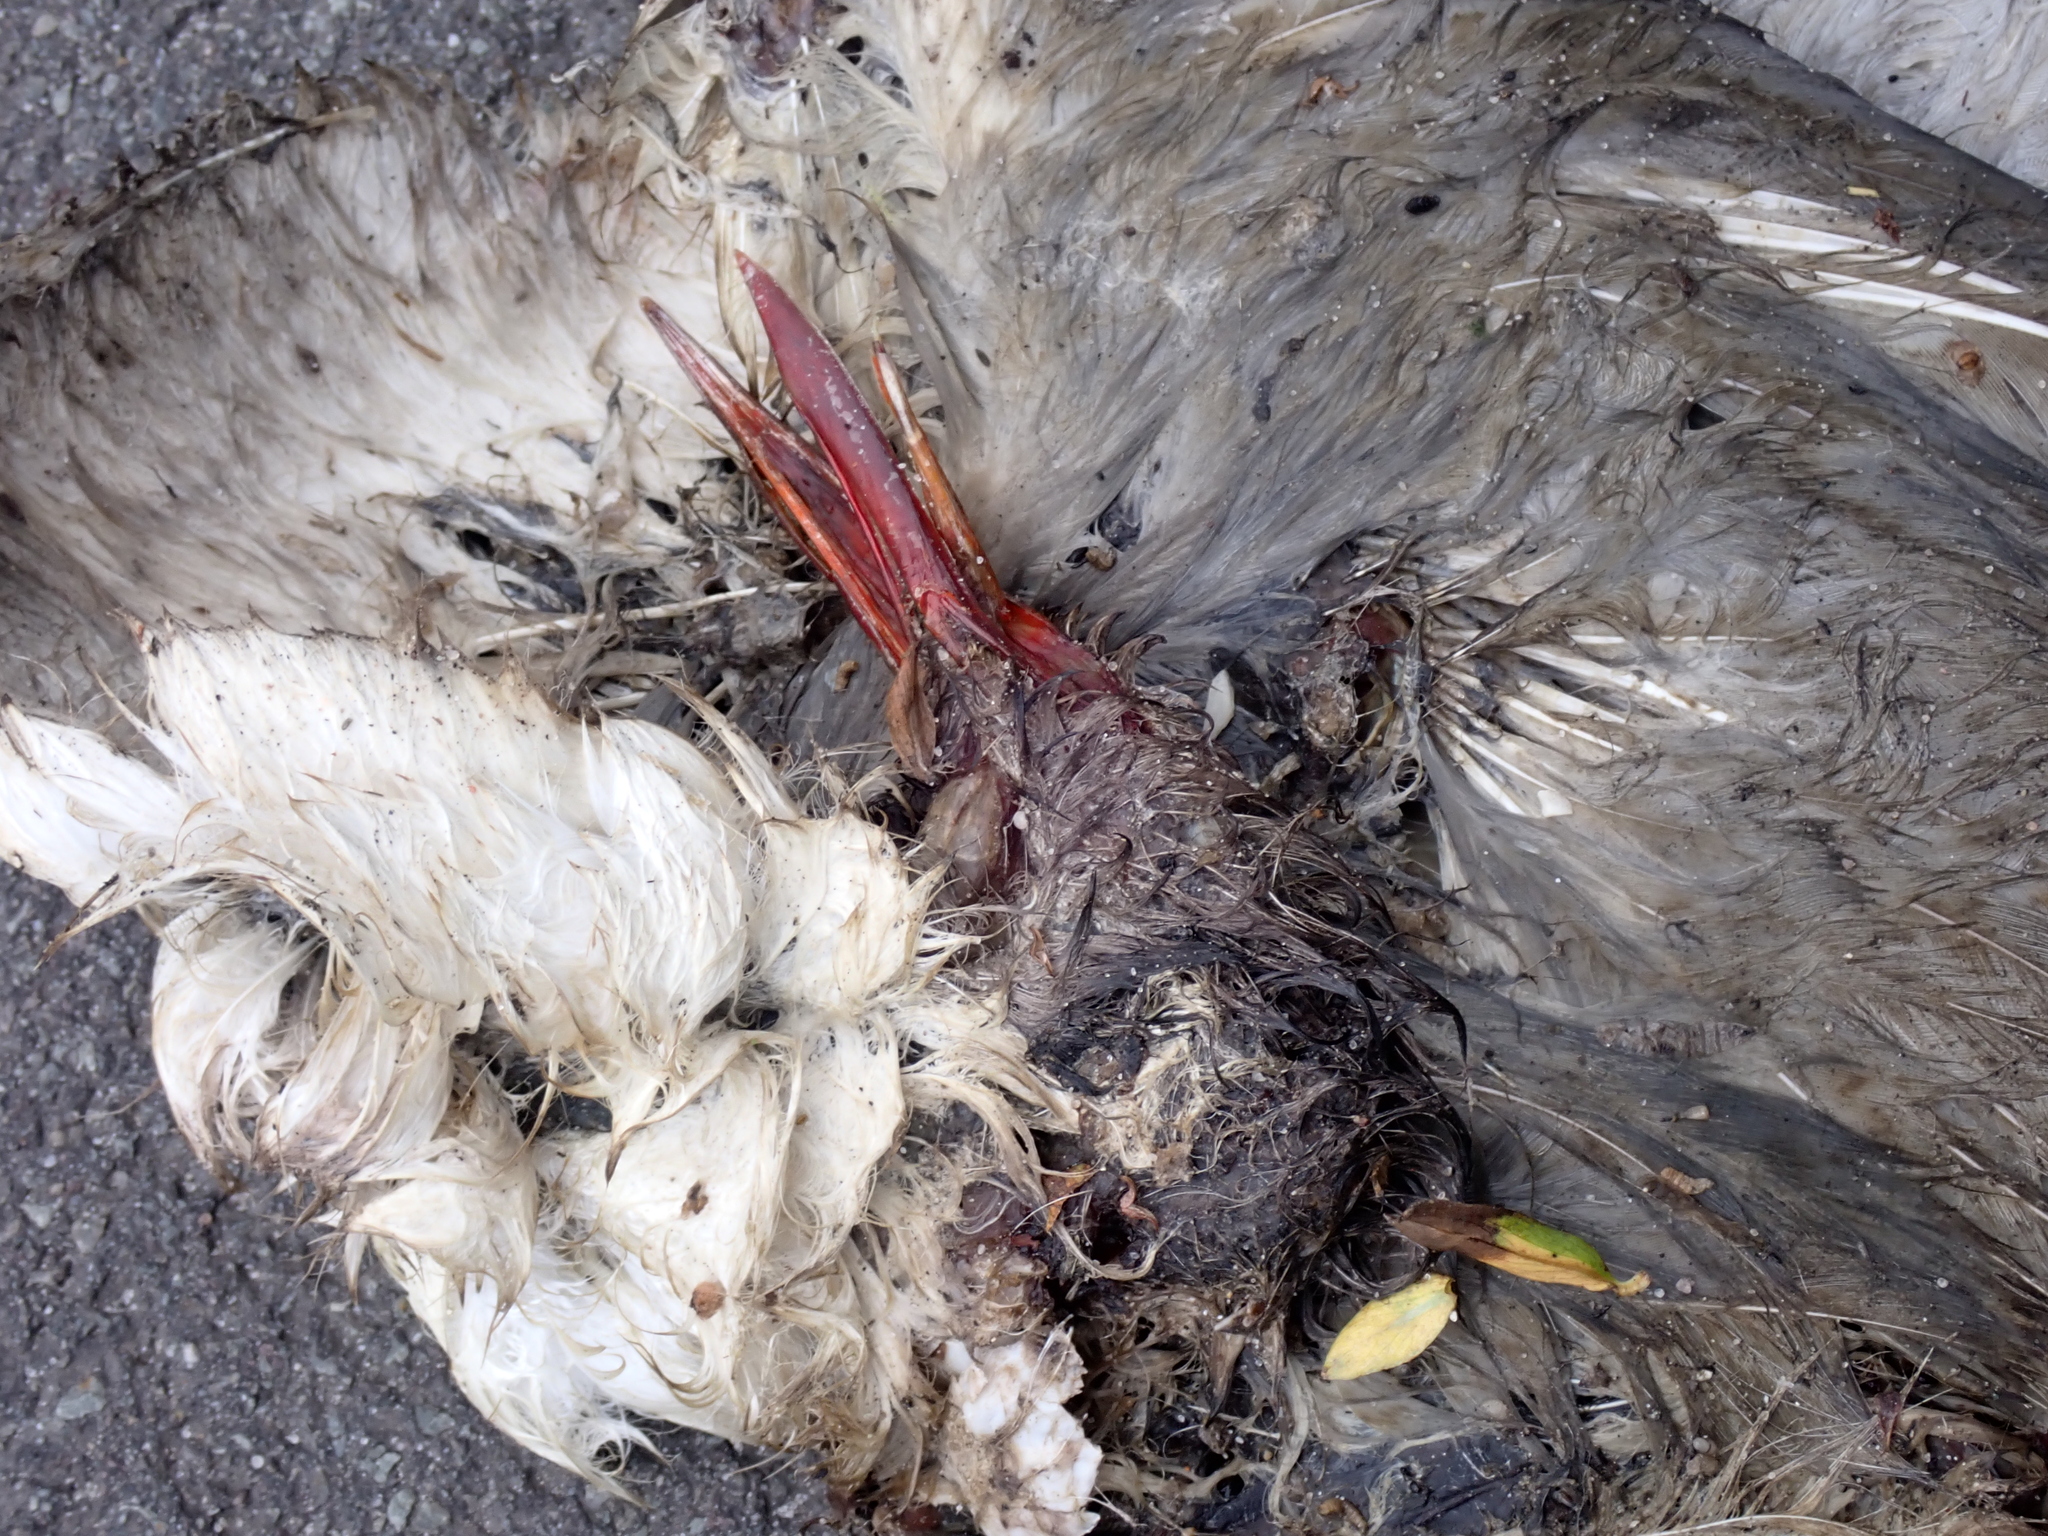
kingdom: Animalia
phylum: Chordata
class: Aves
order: Charadriiformes
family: Laridae
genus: Chroicocephalus
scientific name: Chroicocephalus ridibundus
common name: Black-headed gull
